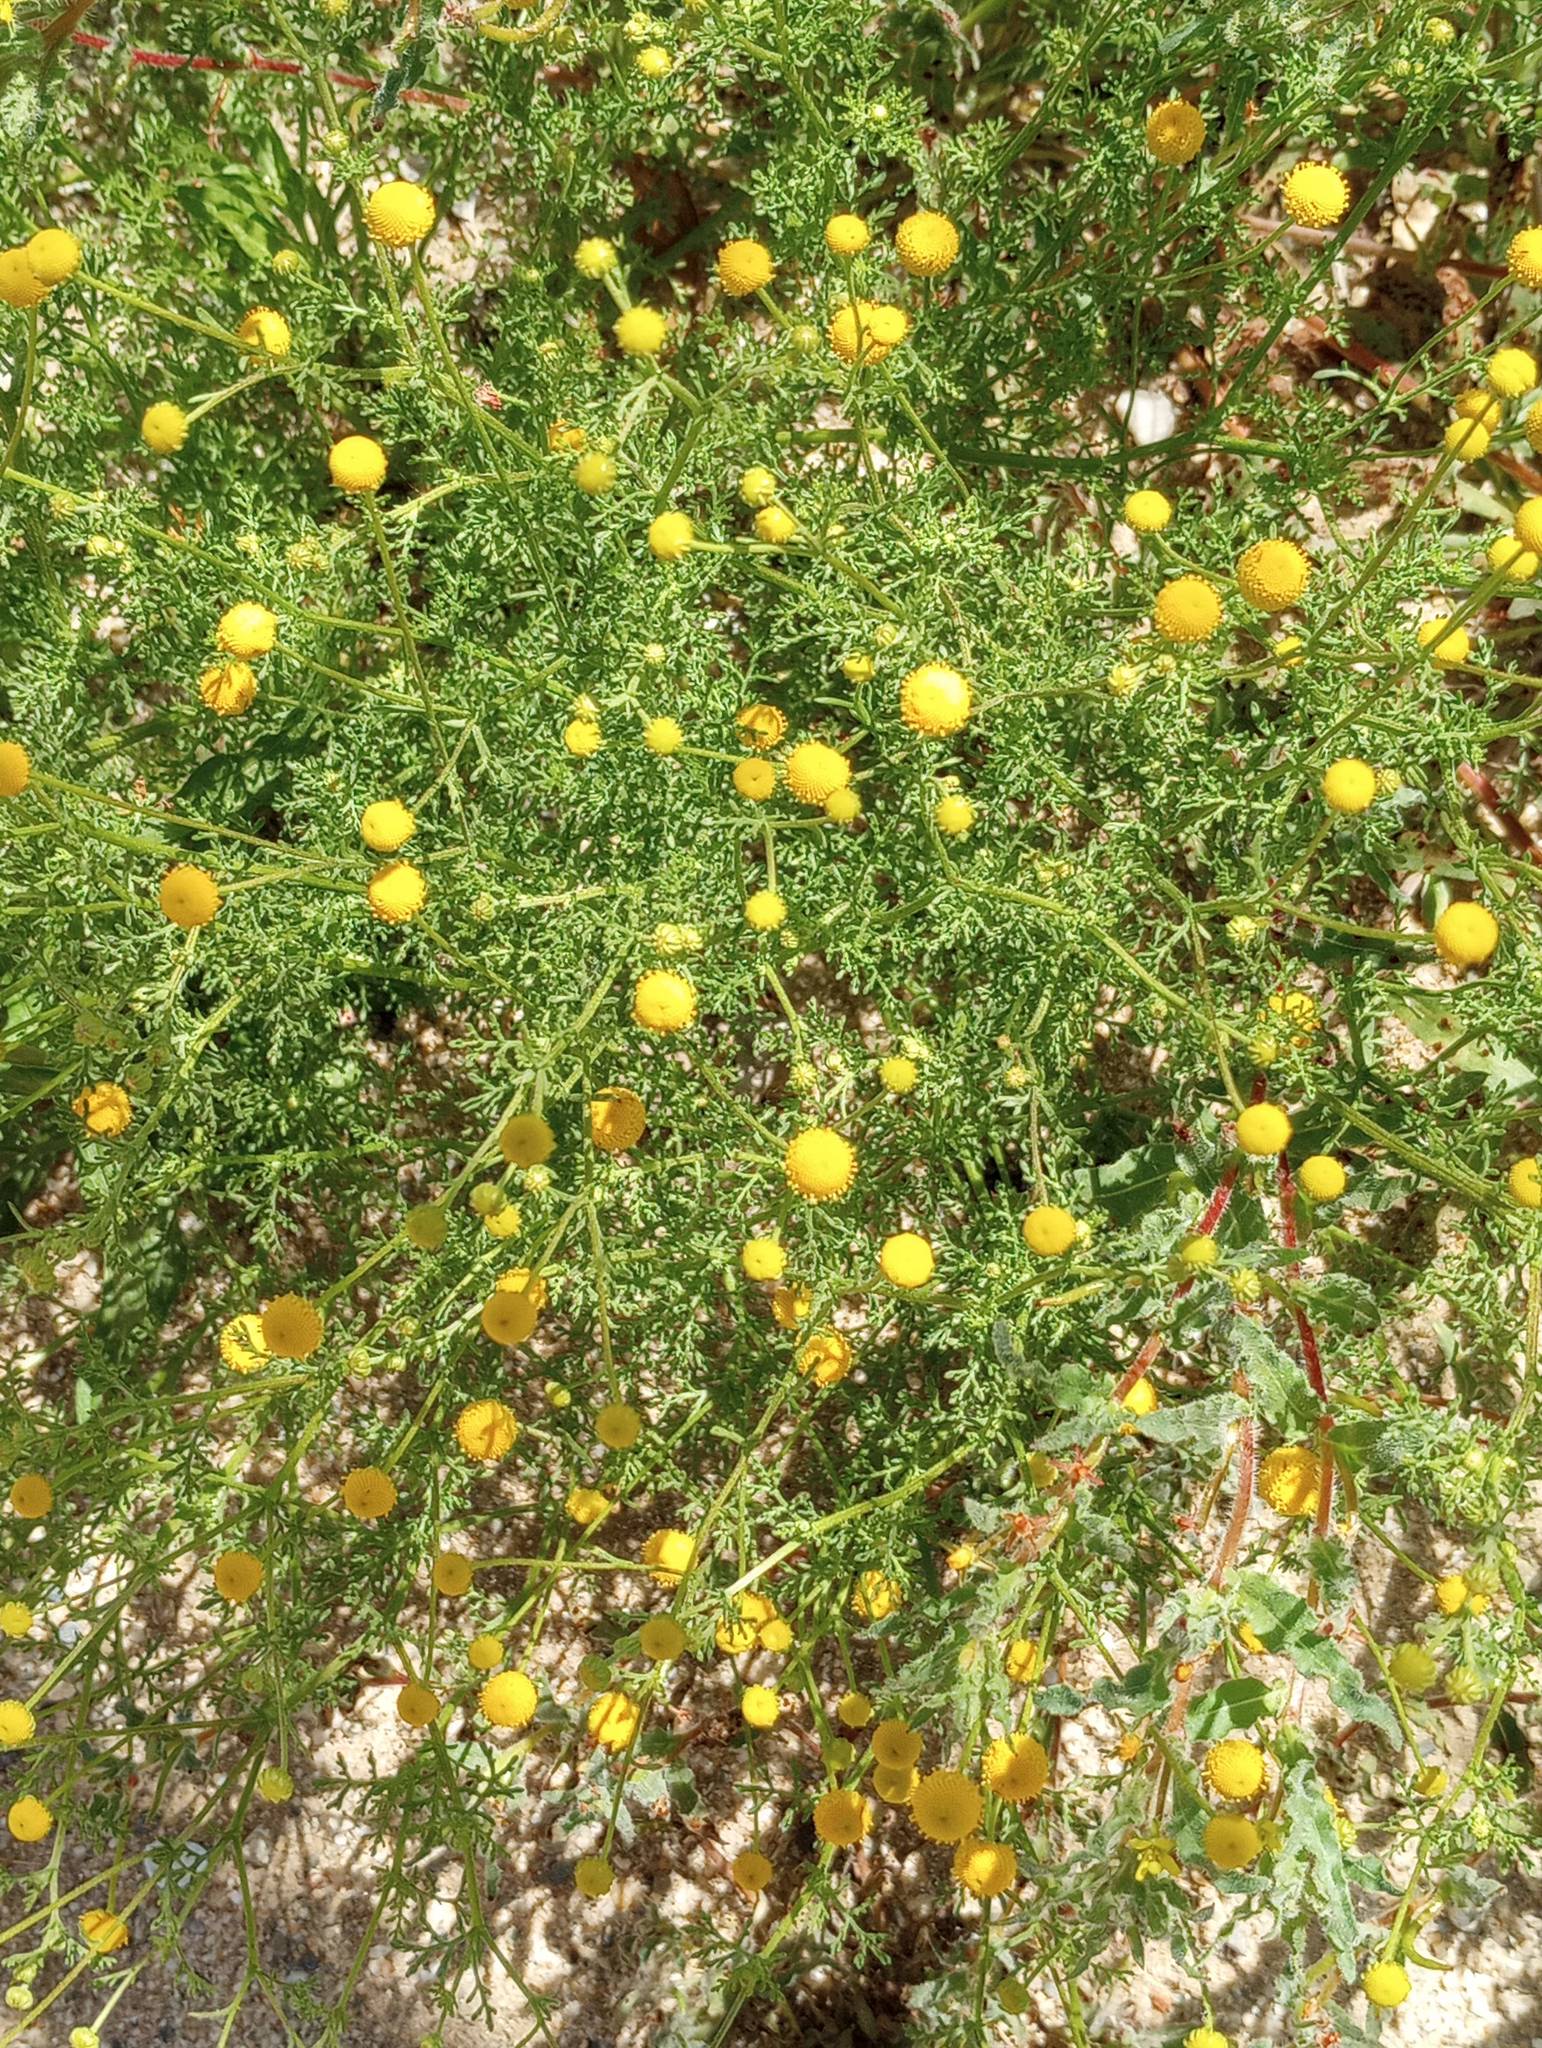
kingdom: Plantae
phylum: Tracheophyta
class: Magnoliopsida
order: Asterales
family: Asteraceae
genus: Oncosiphon
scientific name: Oncosiphon pilulifer
